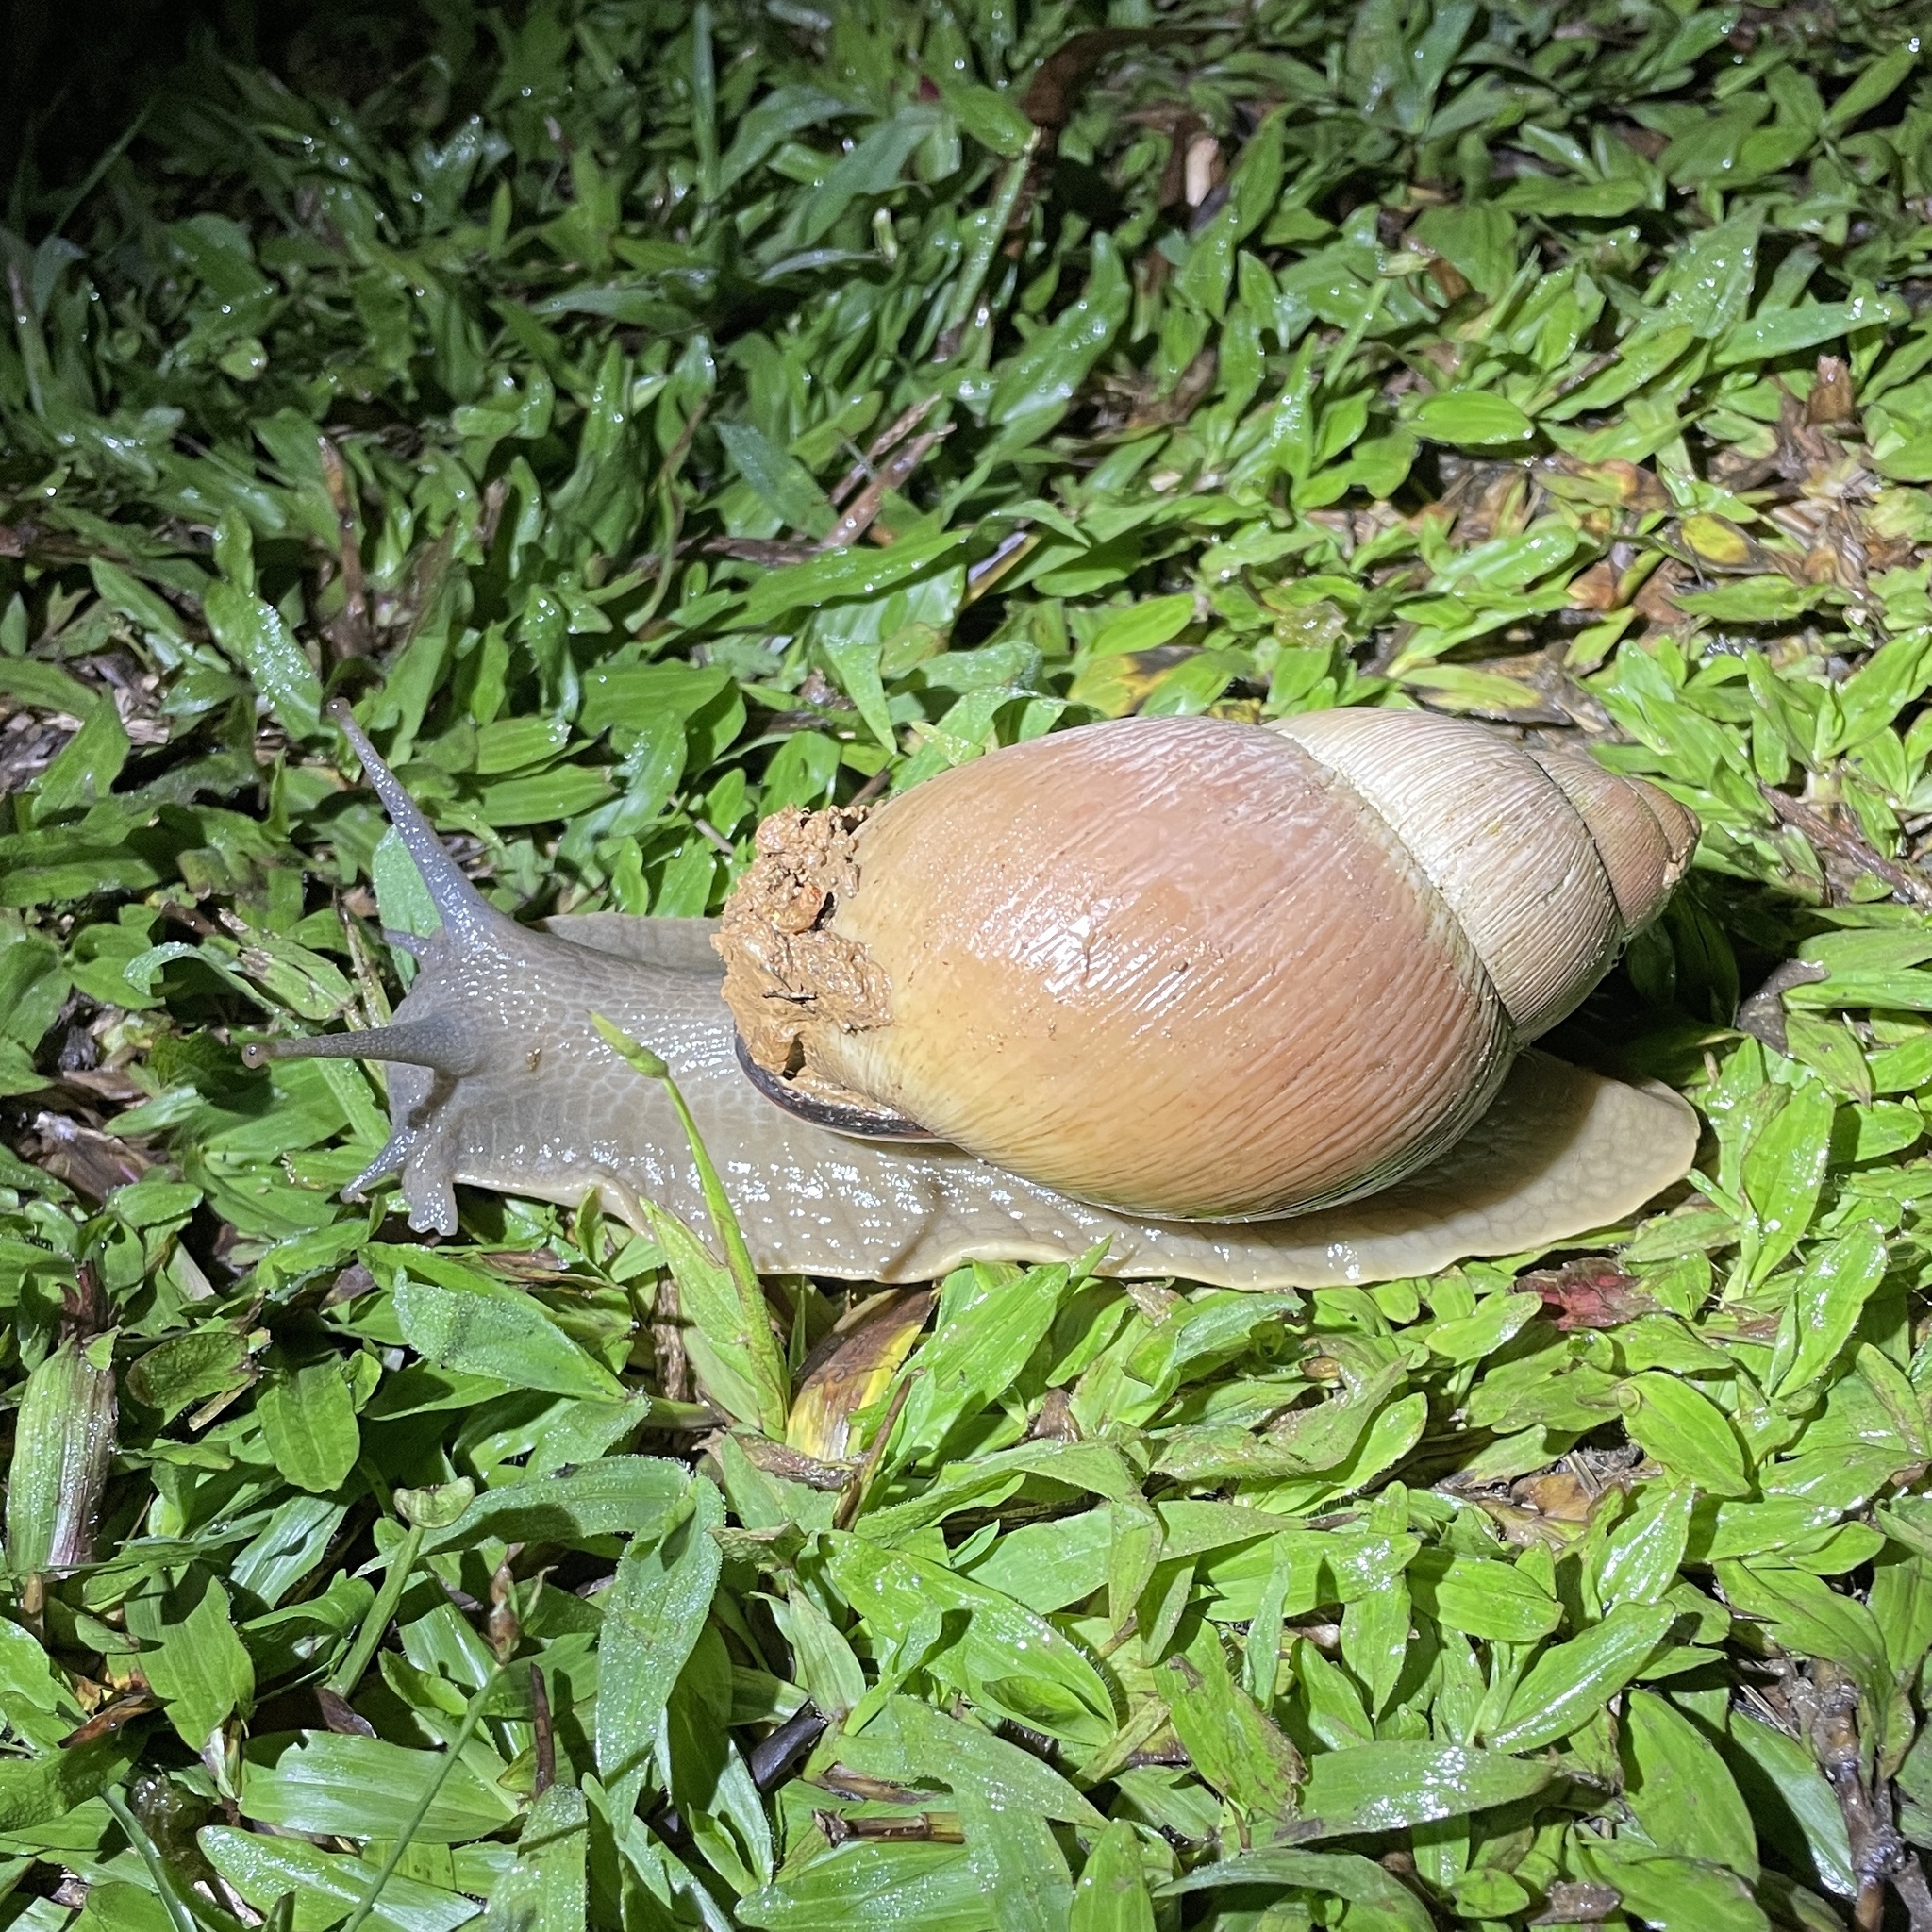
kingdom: Animalia
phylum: Mollusca
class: Gastropoda
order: Stylommatophora
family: Strophocheilidae
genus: Megalobulimus
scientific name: Megalobulimus oblongus
